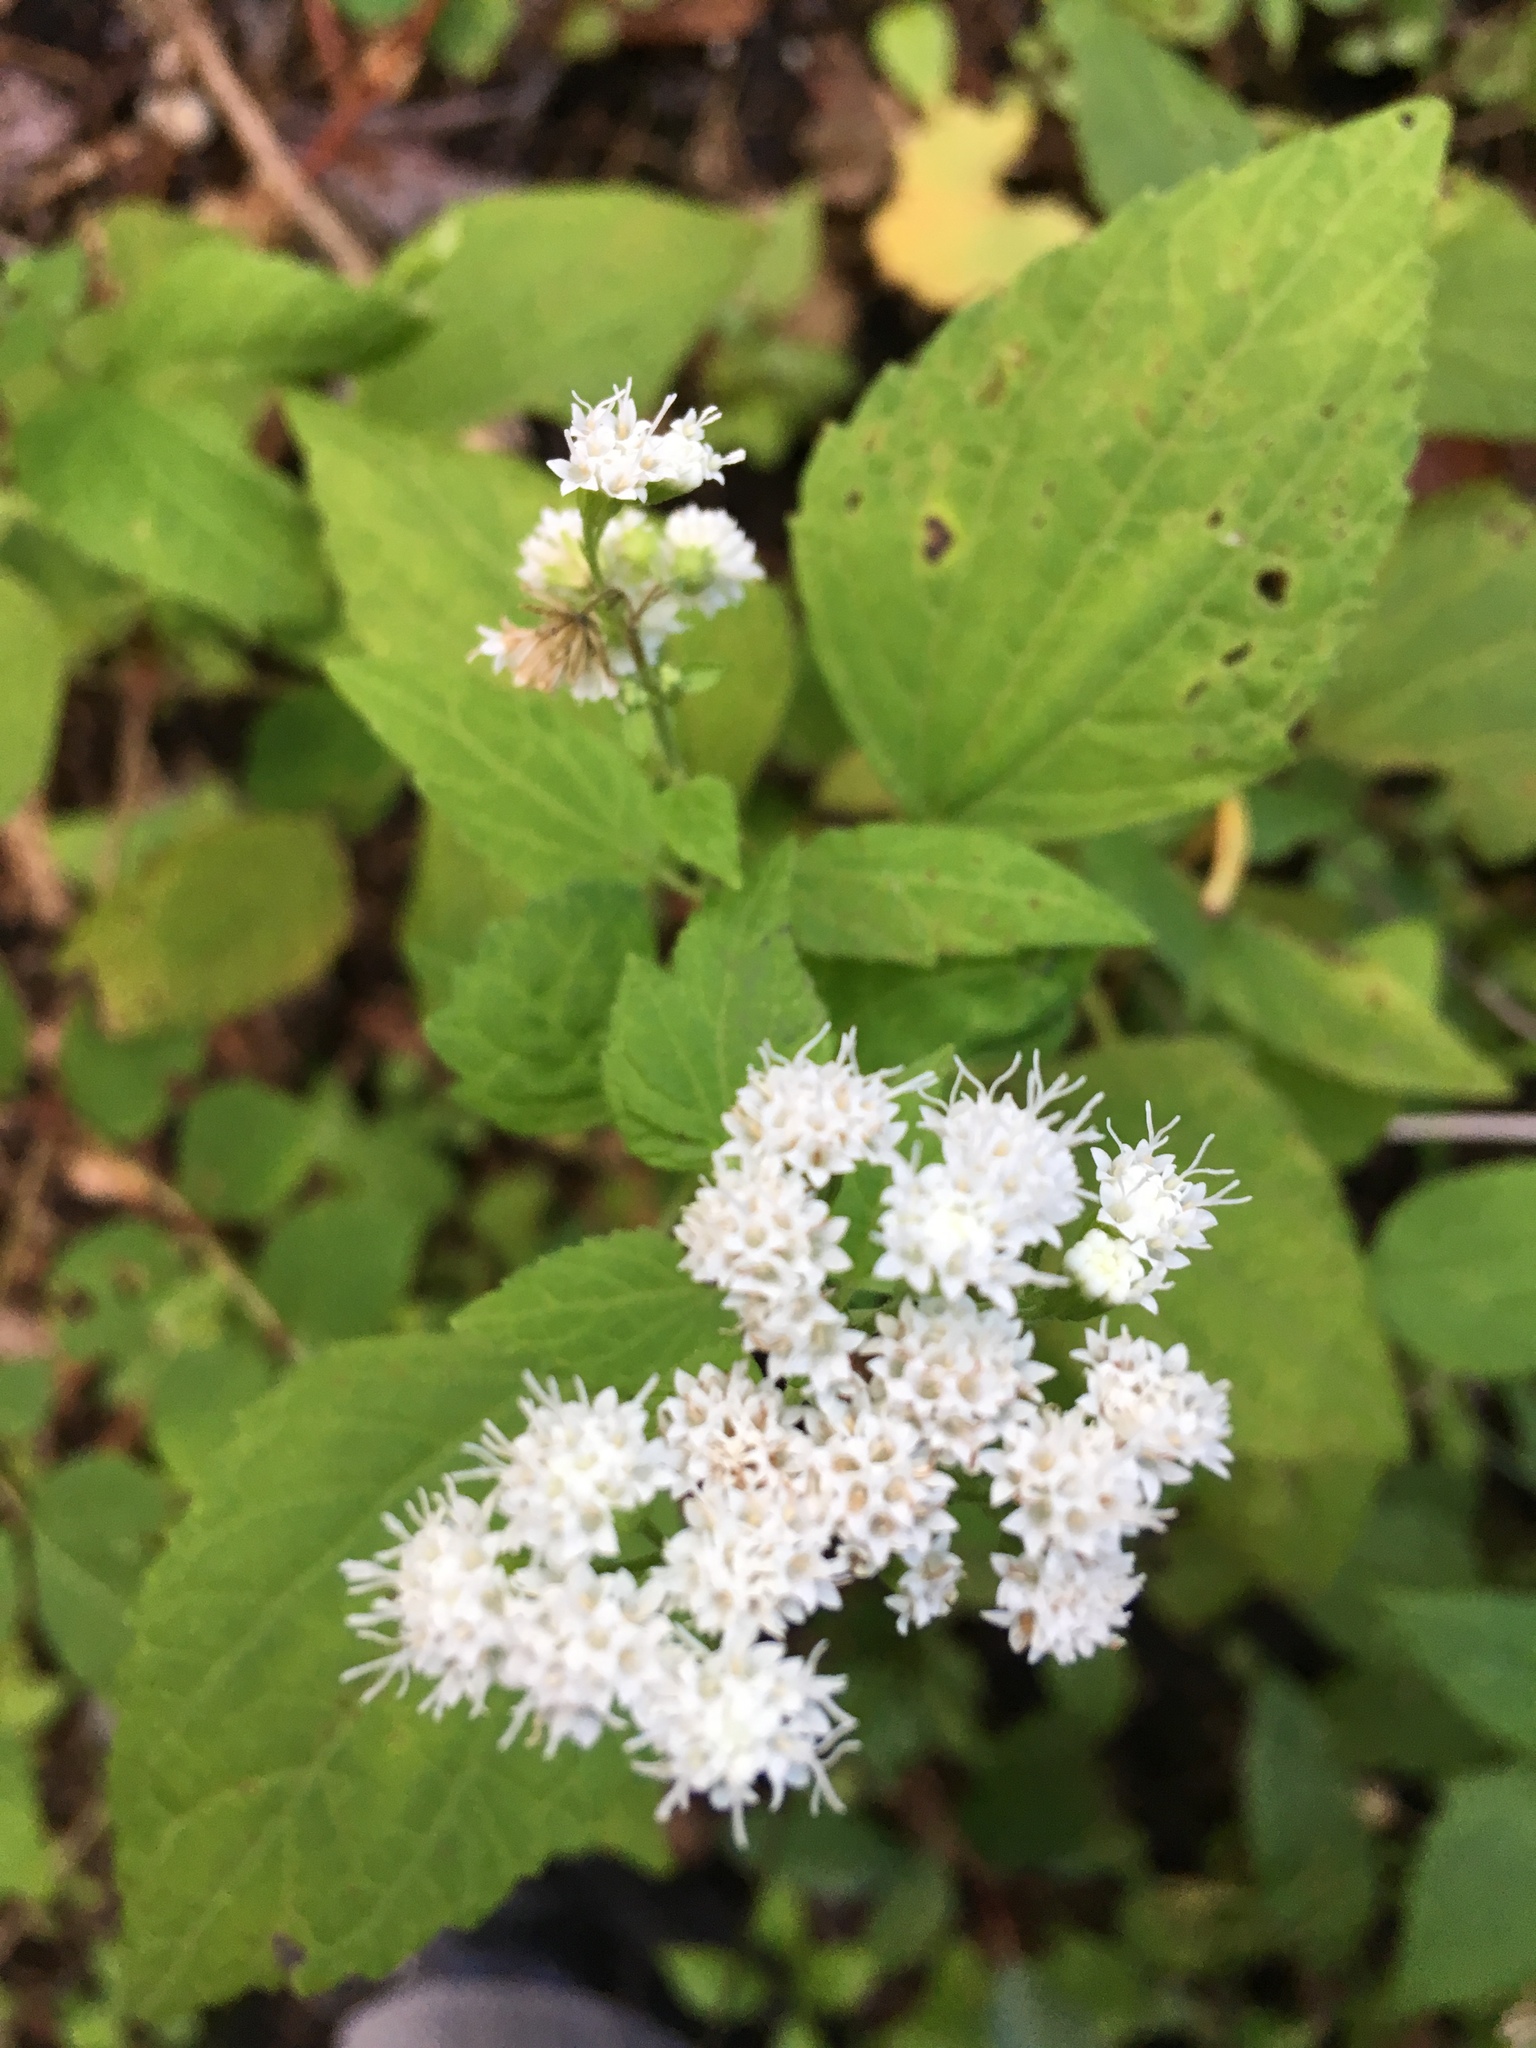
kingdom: Plantae
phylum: Tracheophyta
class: Magnoliopsida
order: Asterales
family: Asteraceae
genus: Ageratina
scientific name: Ageratina altissima
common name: White snakeroot
